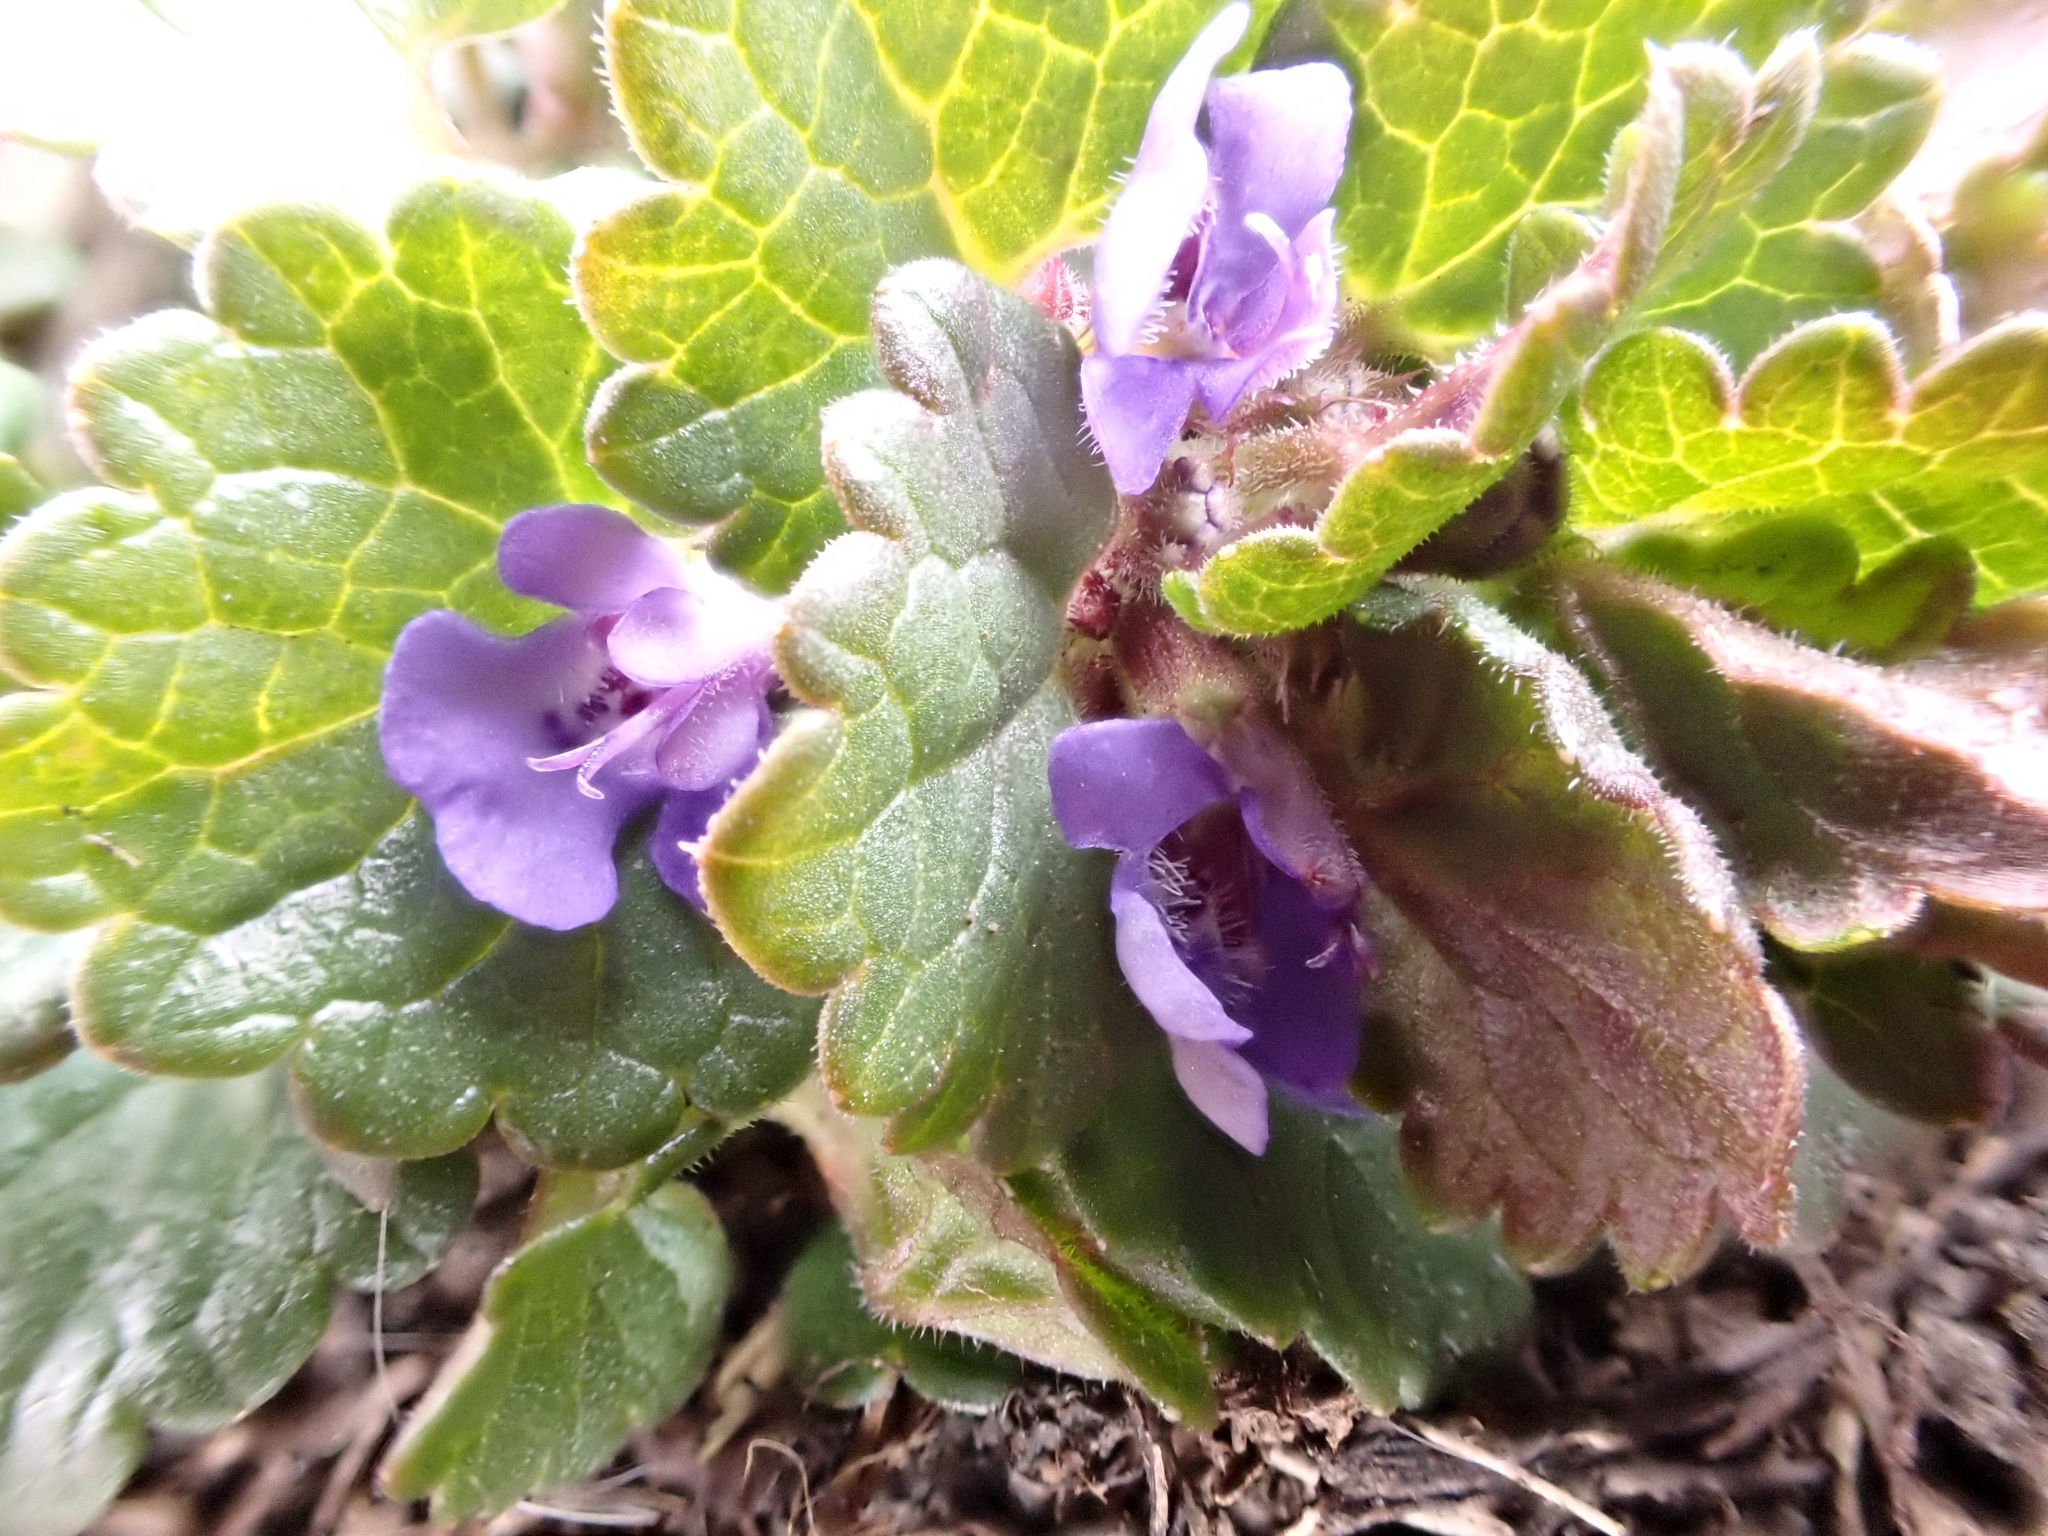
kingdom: Plantae
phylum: Tracheophyta
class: Magnoliopsida
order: Lamiales
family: Lamiaceae
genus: Glechoma
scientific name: Glechoma hederacea
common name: Ground ivy
